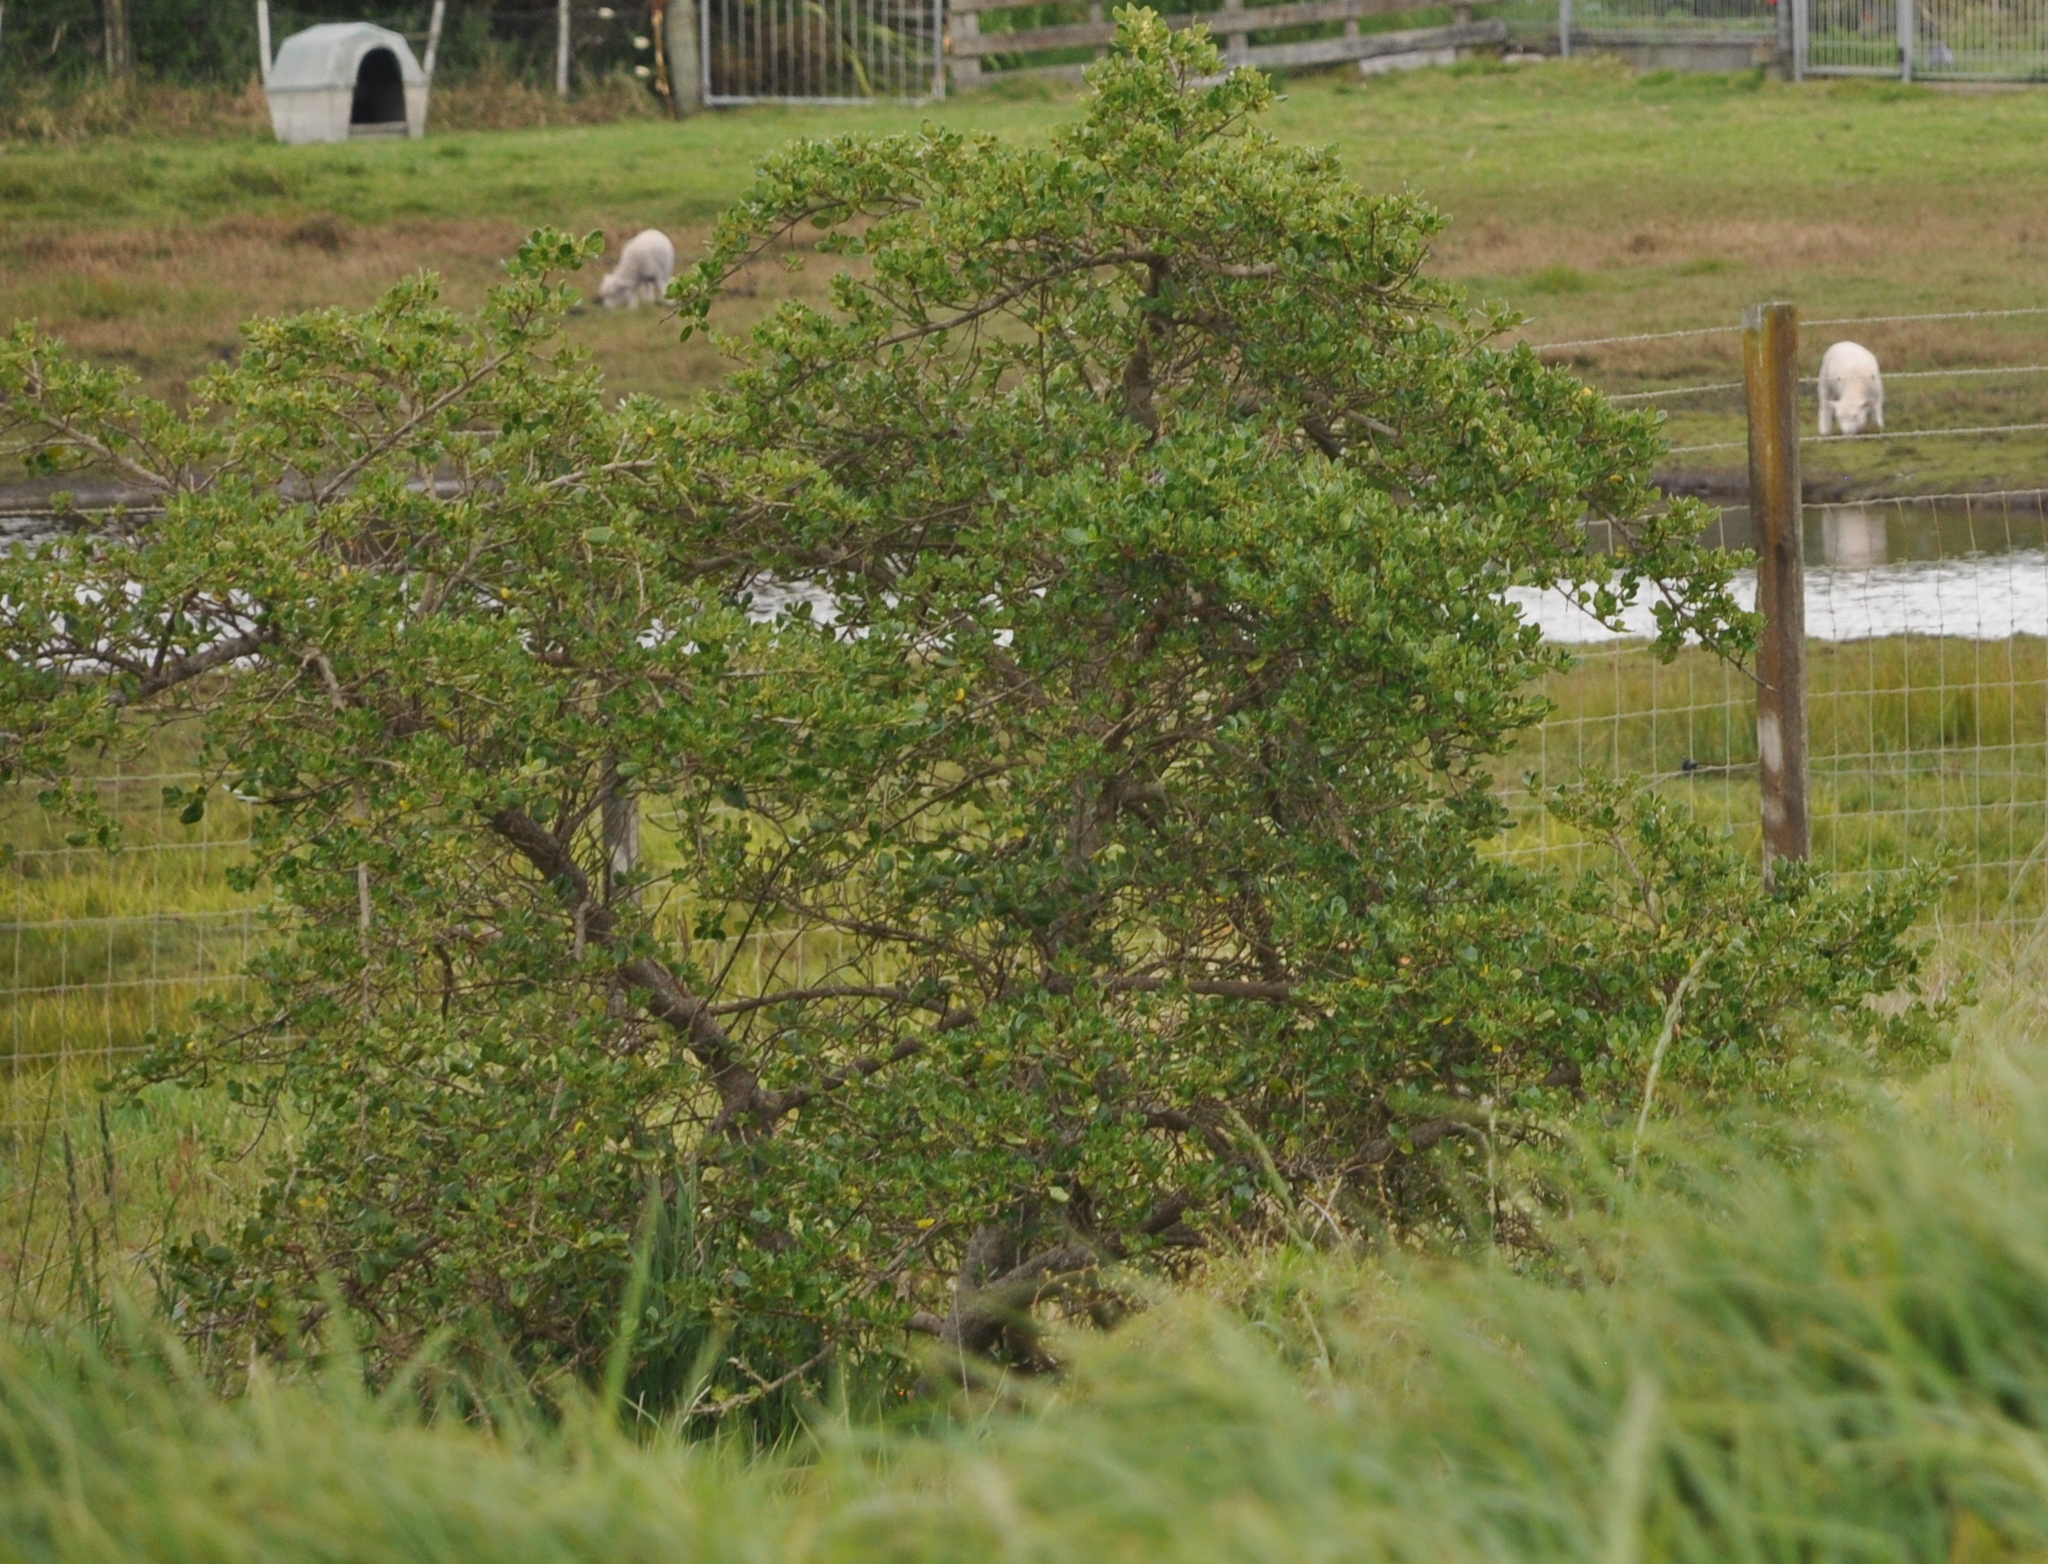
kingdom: Plantae
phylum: Tracheophyta
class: Magnoliopsida
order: Gentianales
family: Rubiaceae
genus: Coprosma
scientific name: Coprosma repens
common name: Tree bedstraw
